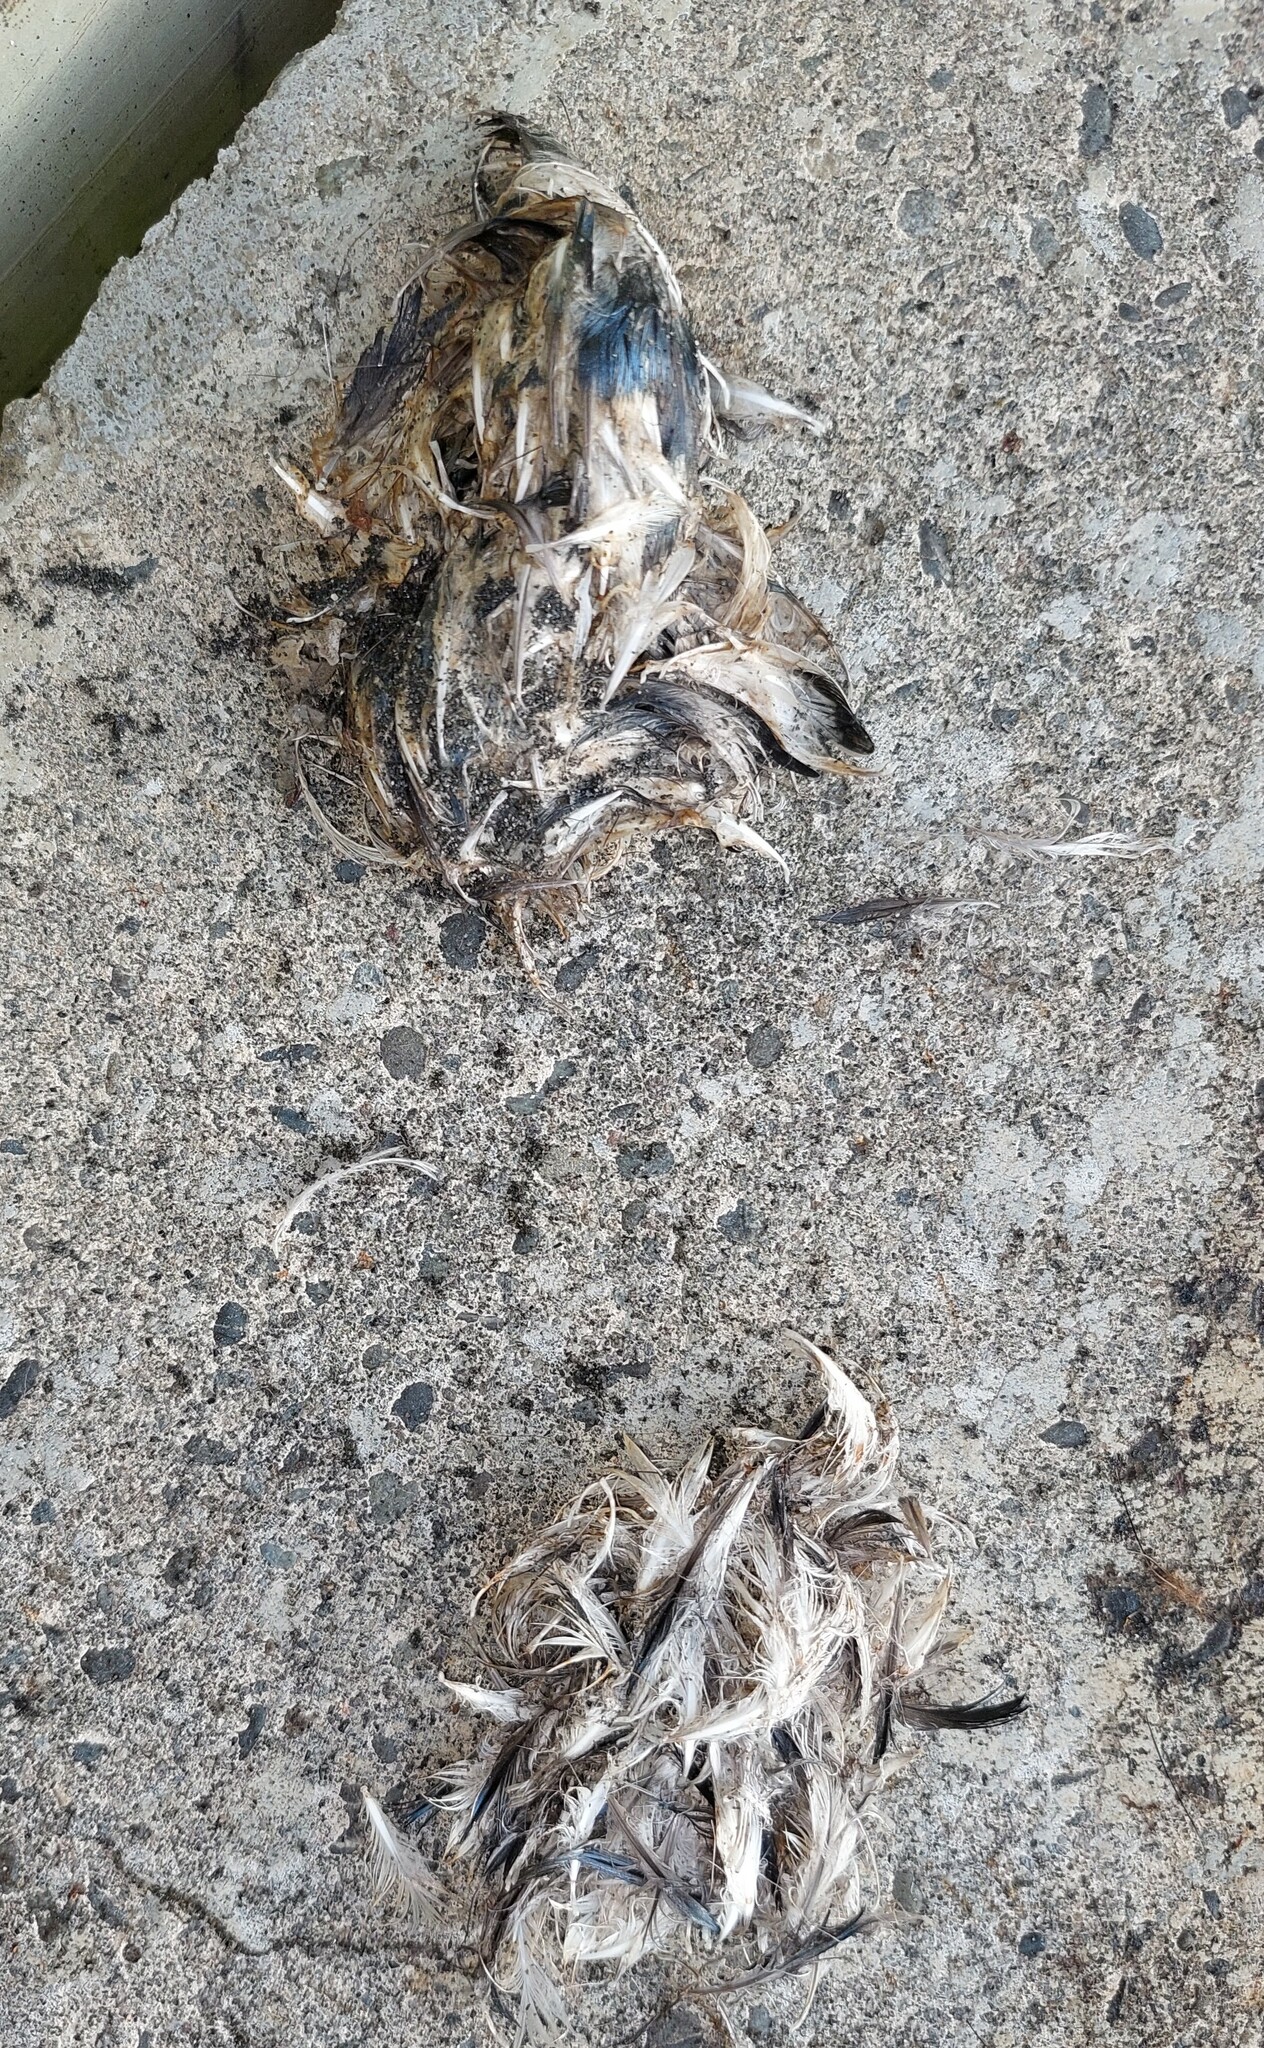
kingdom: Animalia
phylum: Chordata
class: Aves
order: Sphenisciformes
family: Spheniscidae
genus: Eudyptula
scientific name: Eudyptula minor
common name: Little penguin
